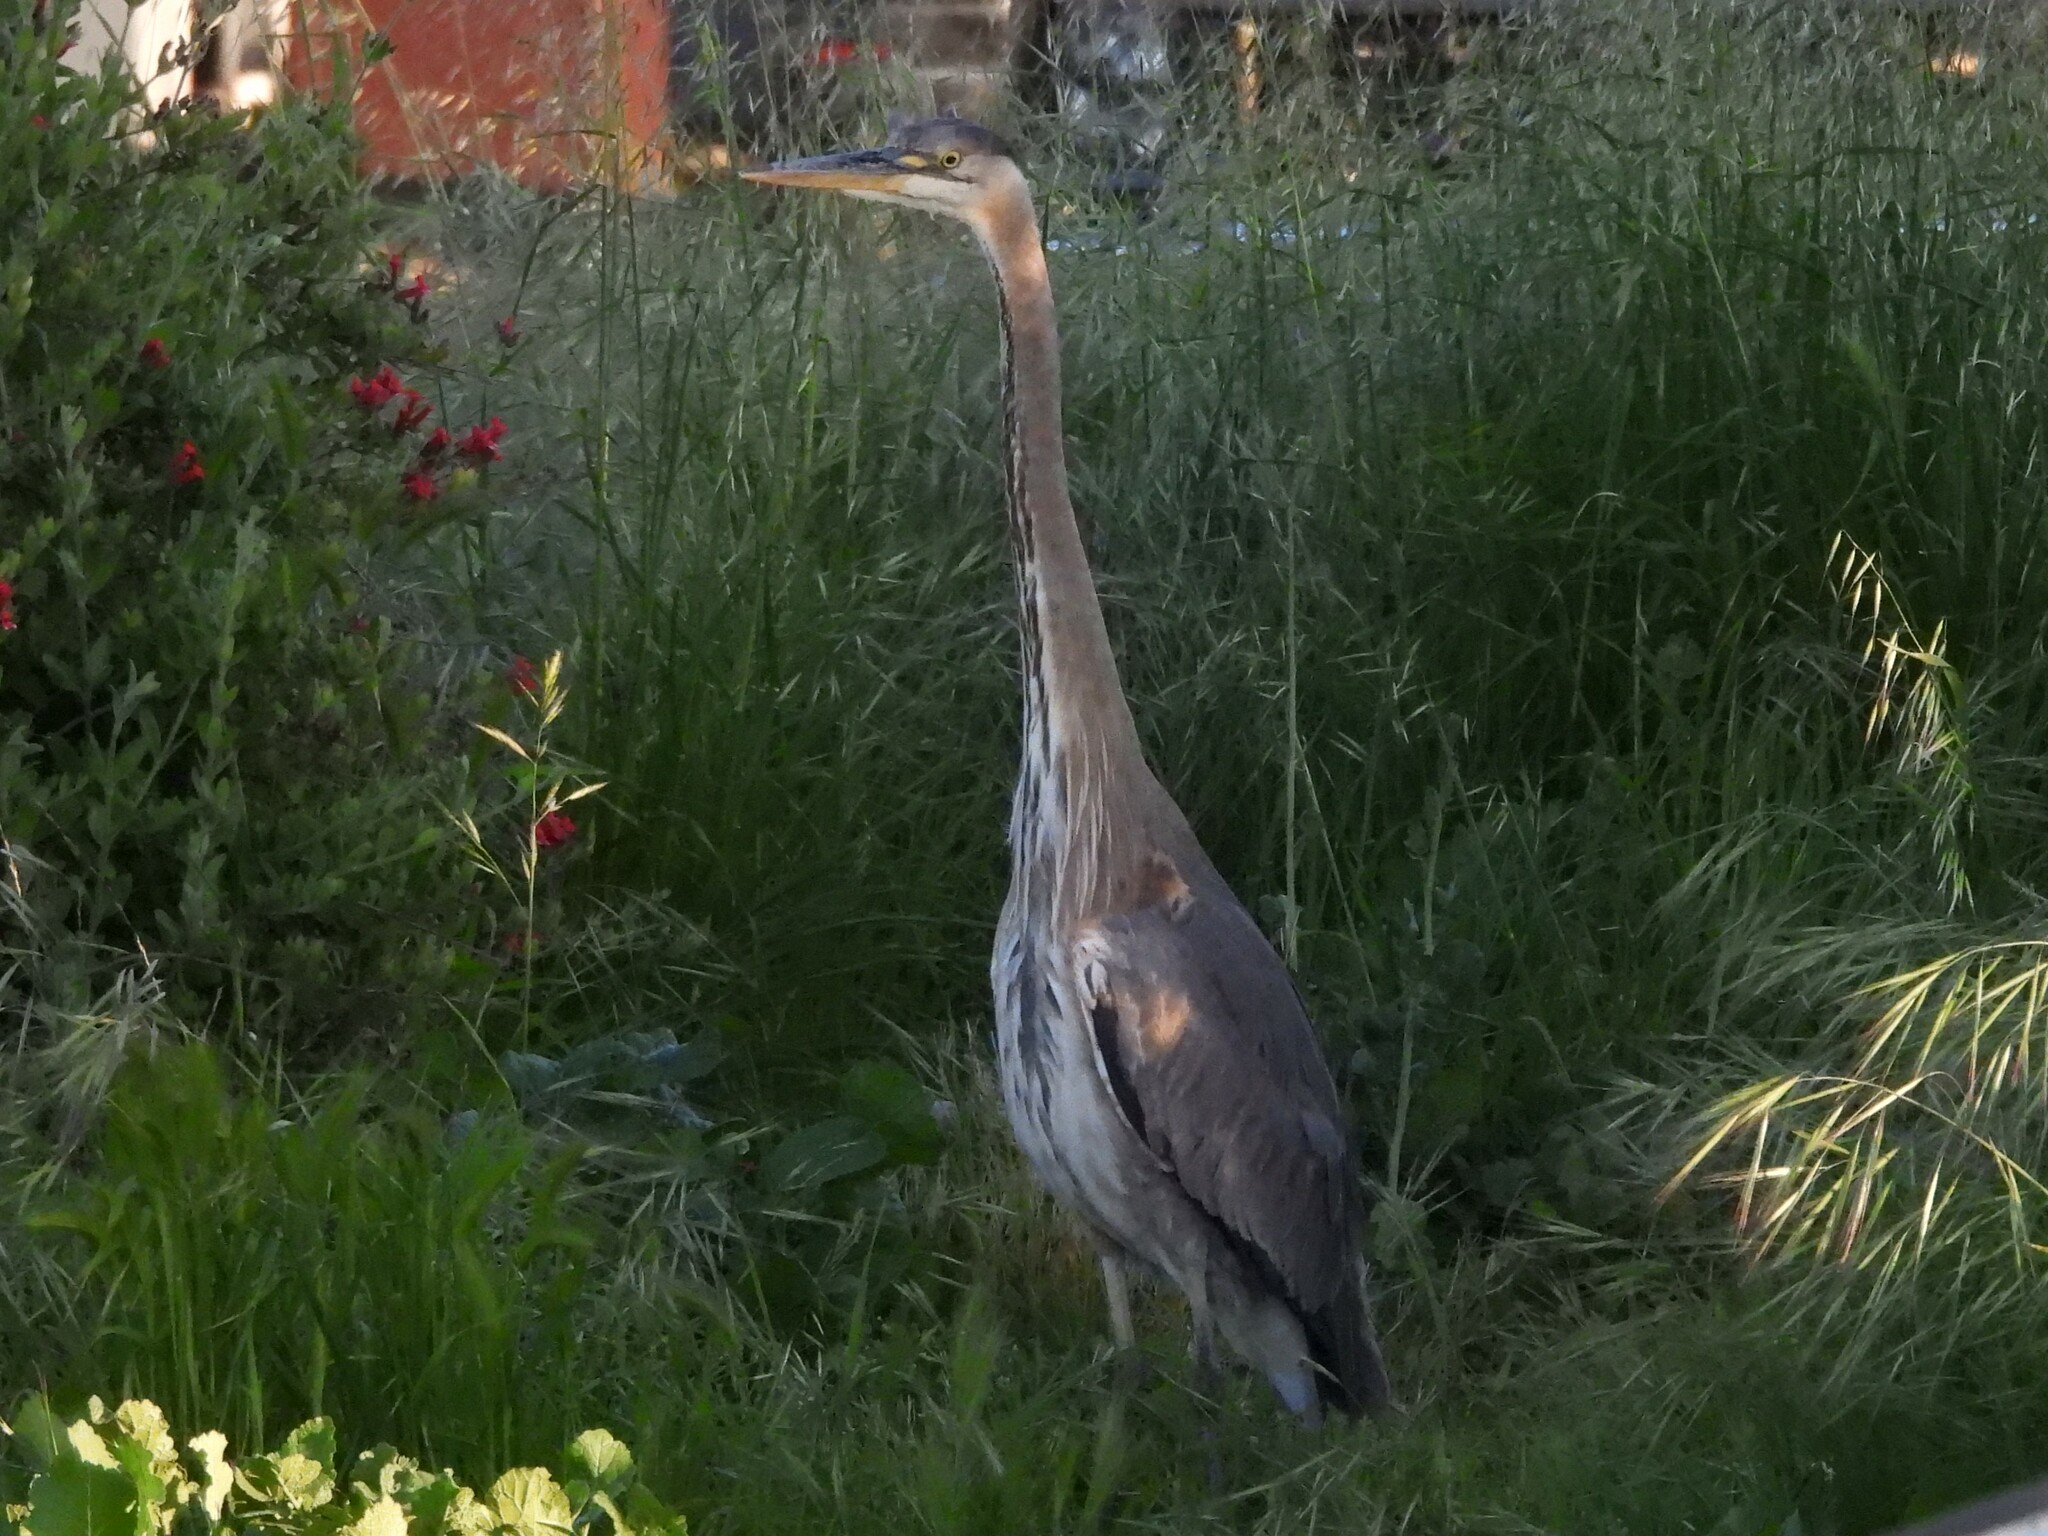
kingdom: Animalia
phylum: Chordata
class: Aves
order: Pelecaniformes
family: Ardeidae
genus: Ardea
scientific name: Ardea herodias
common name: Great blue heron
